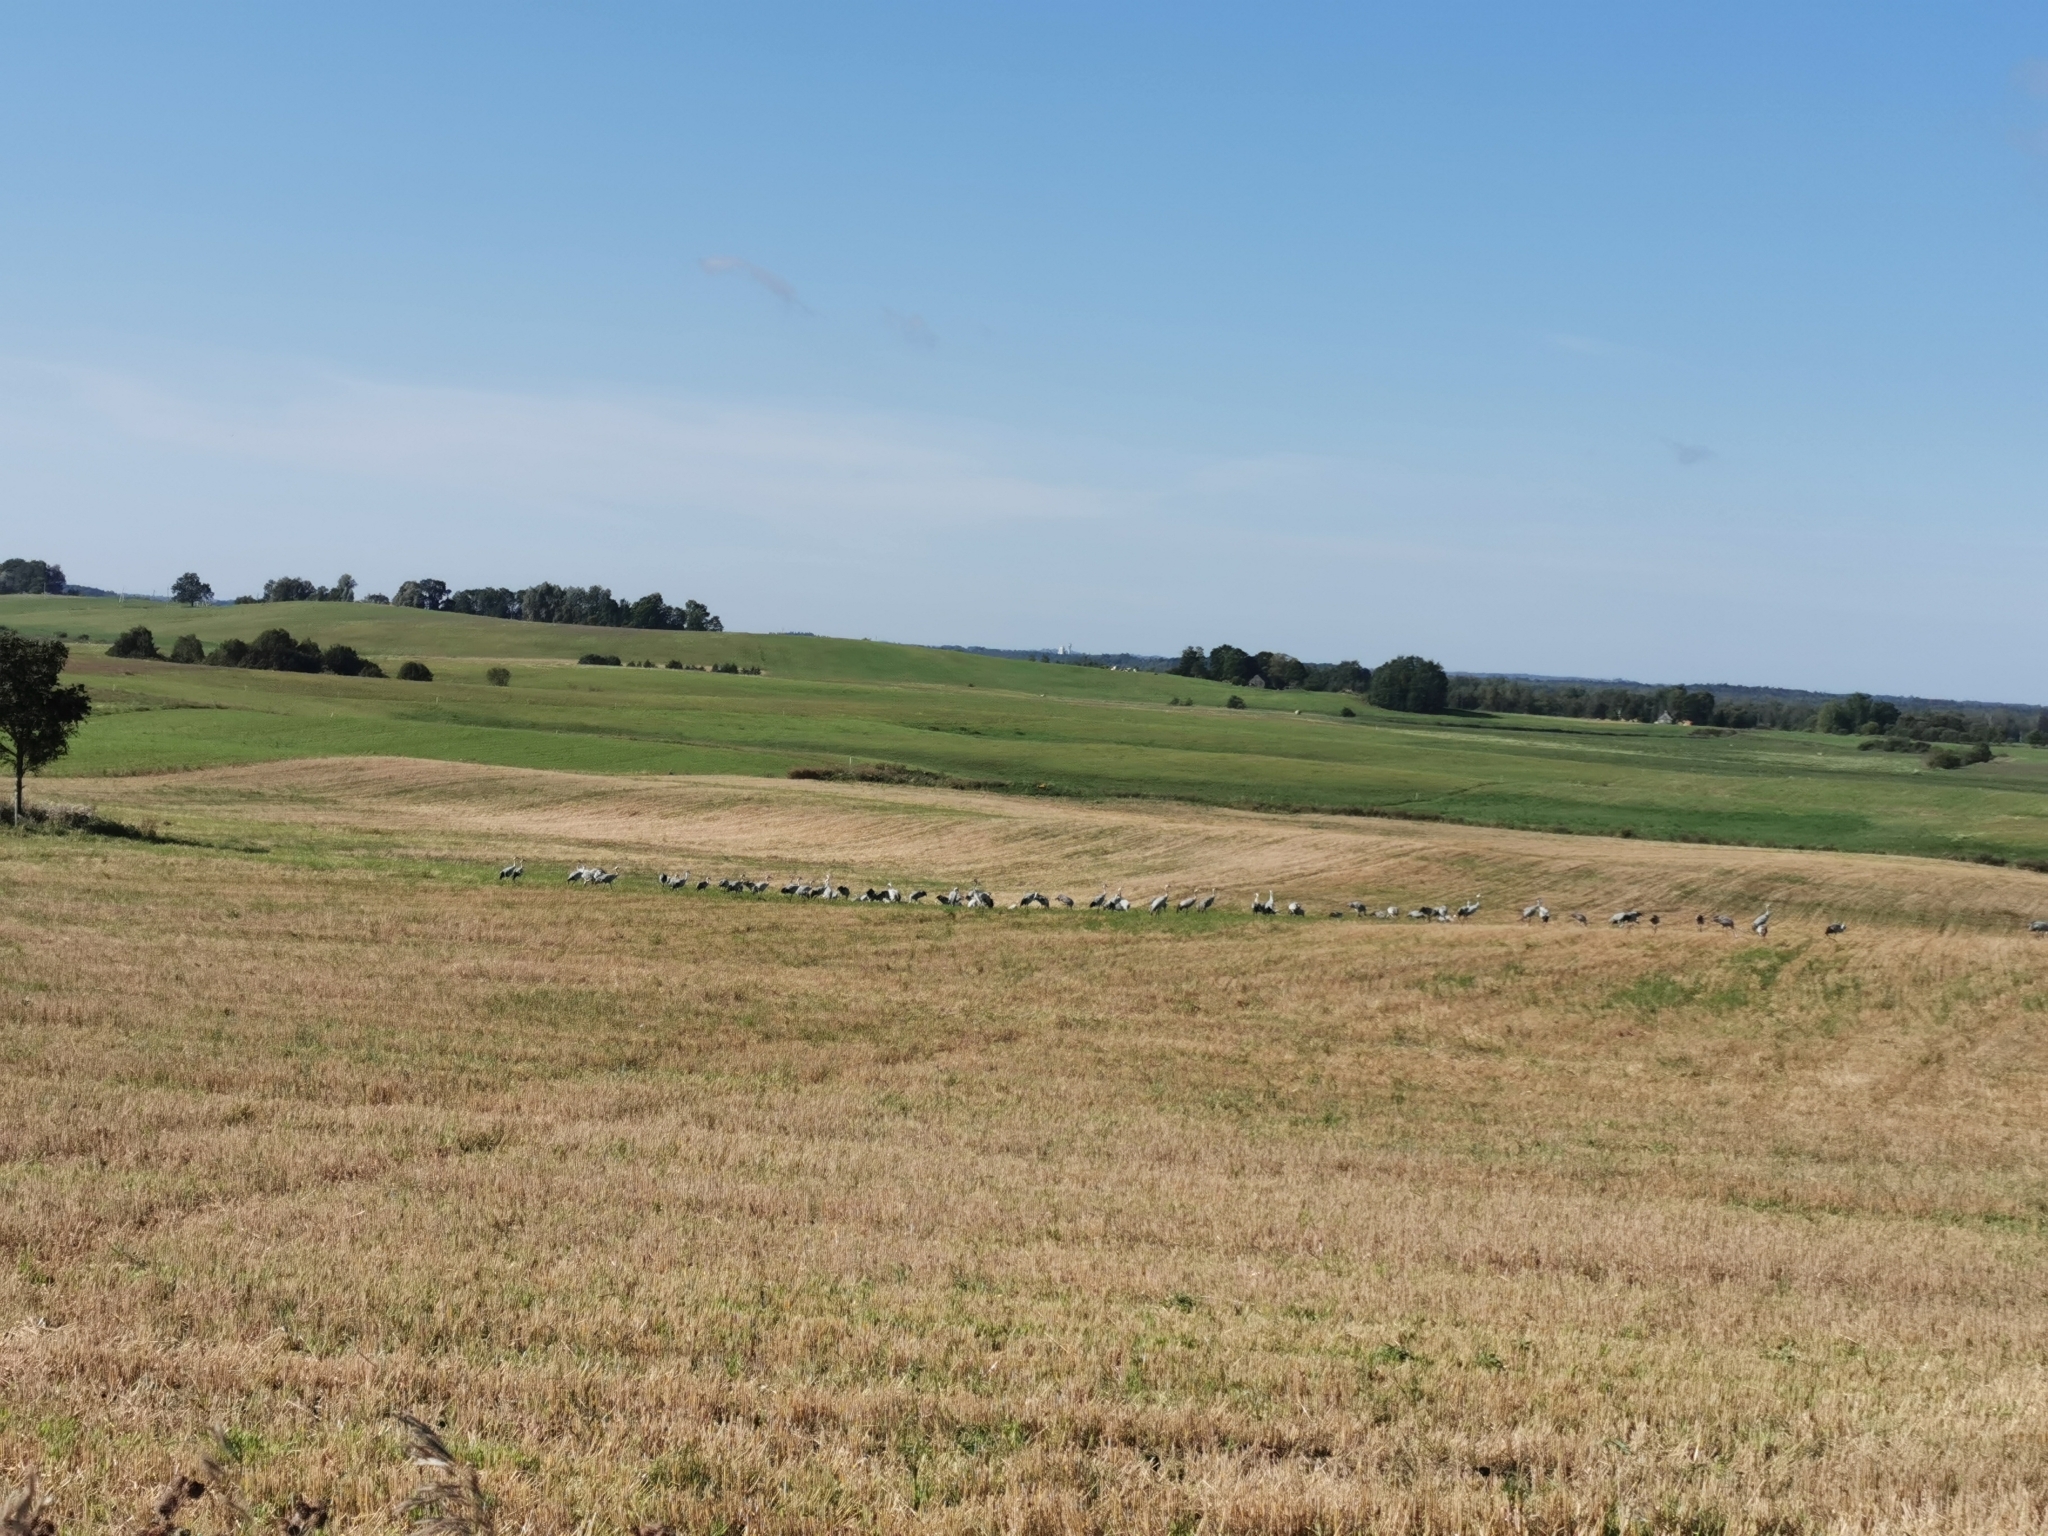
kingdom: Animalia
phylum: Chordata
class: Aves
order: Gruiformes
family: Gruidae
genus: Grus
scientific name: Grus grus
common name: Common crane
